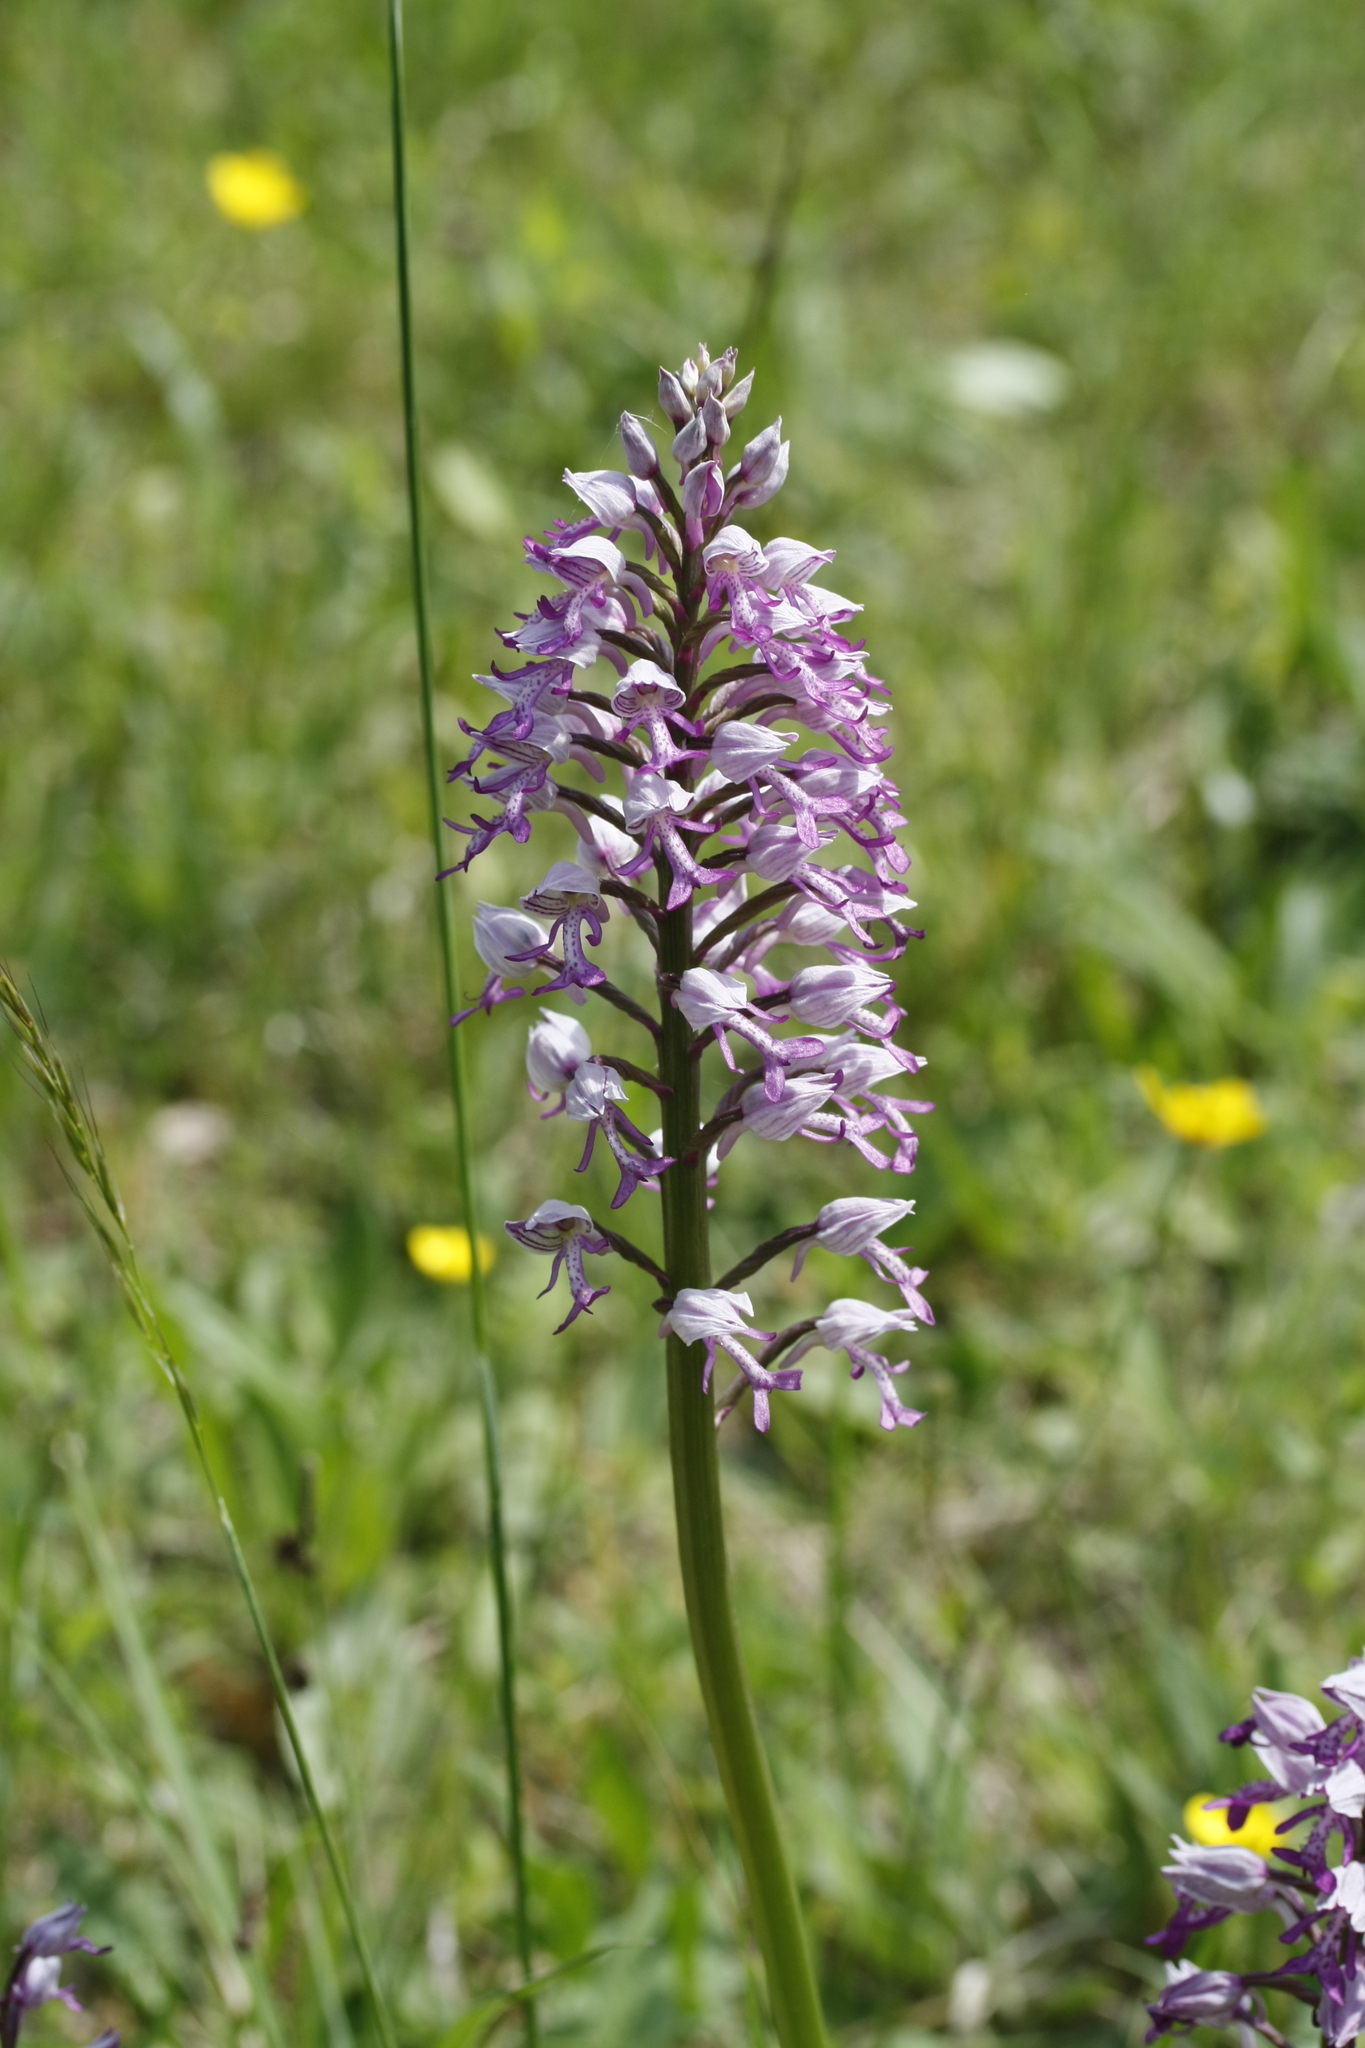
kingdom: Plantae
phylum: Tracheophyta
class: Liliopsida
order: Asparagales
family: Orchidaceae
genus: Orchis
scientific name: Orchis militaris
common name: Military orchid
